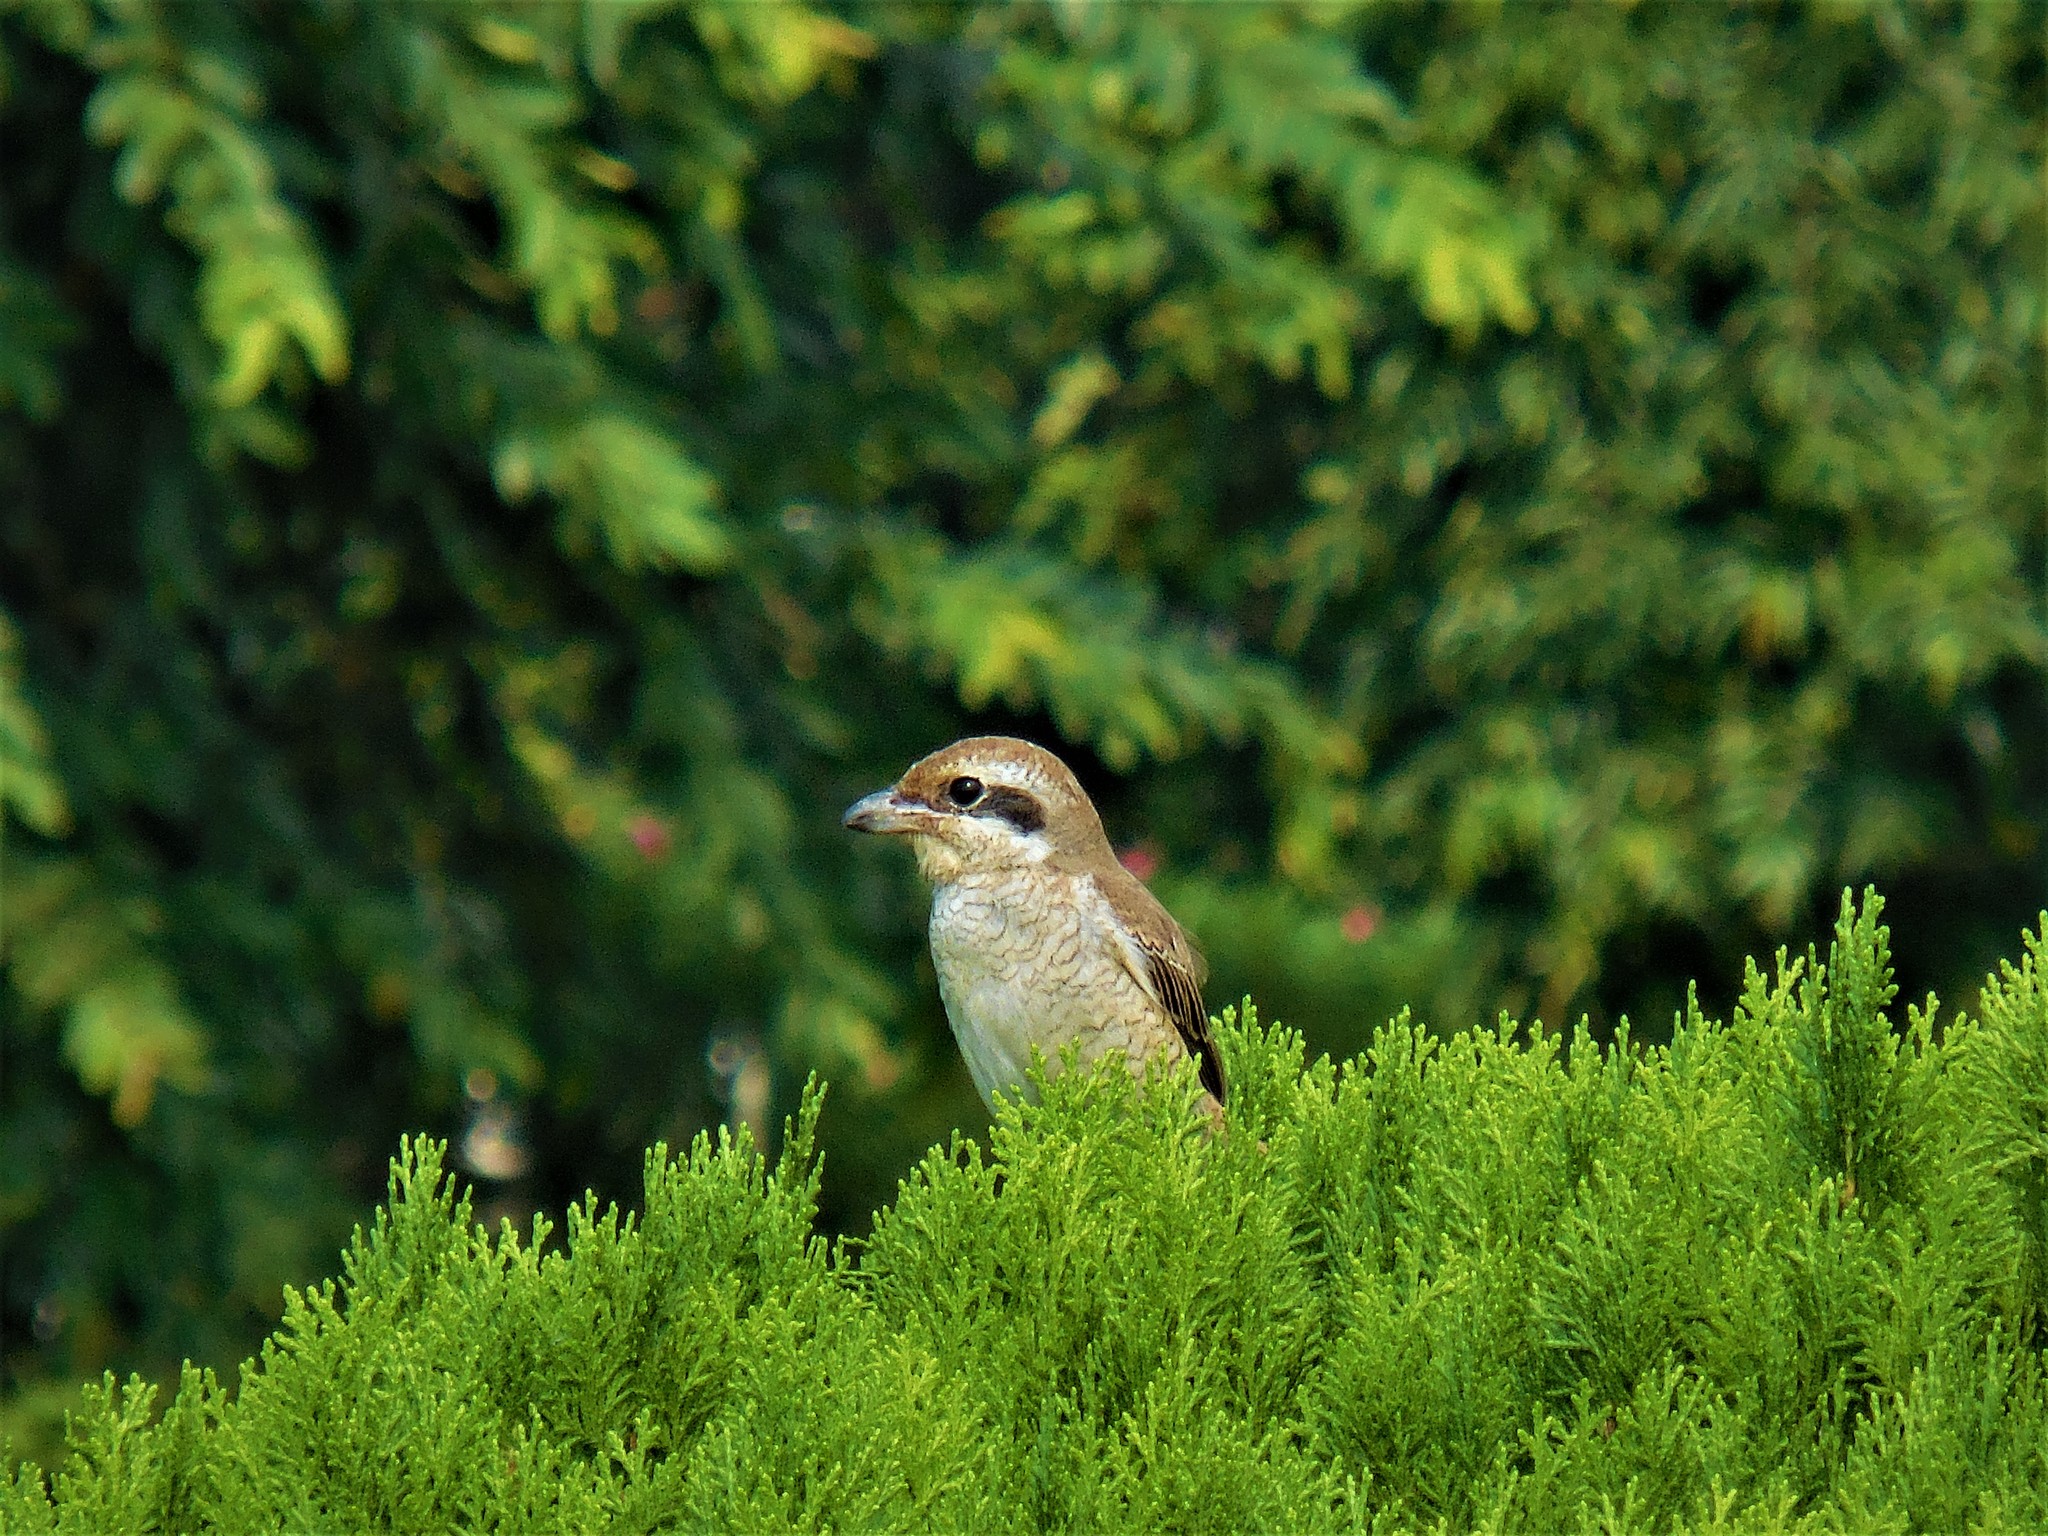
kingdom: Animalia
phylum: Chordata
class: Aves
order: Passeriformes
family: Laniidae
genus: Lanius
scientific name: Lanius cristatus
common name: Brown shrike
